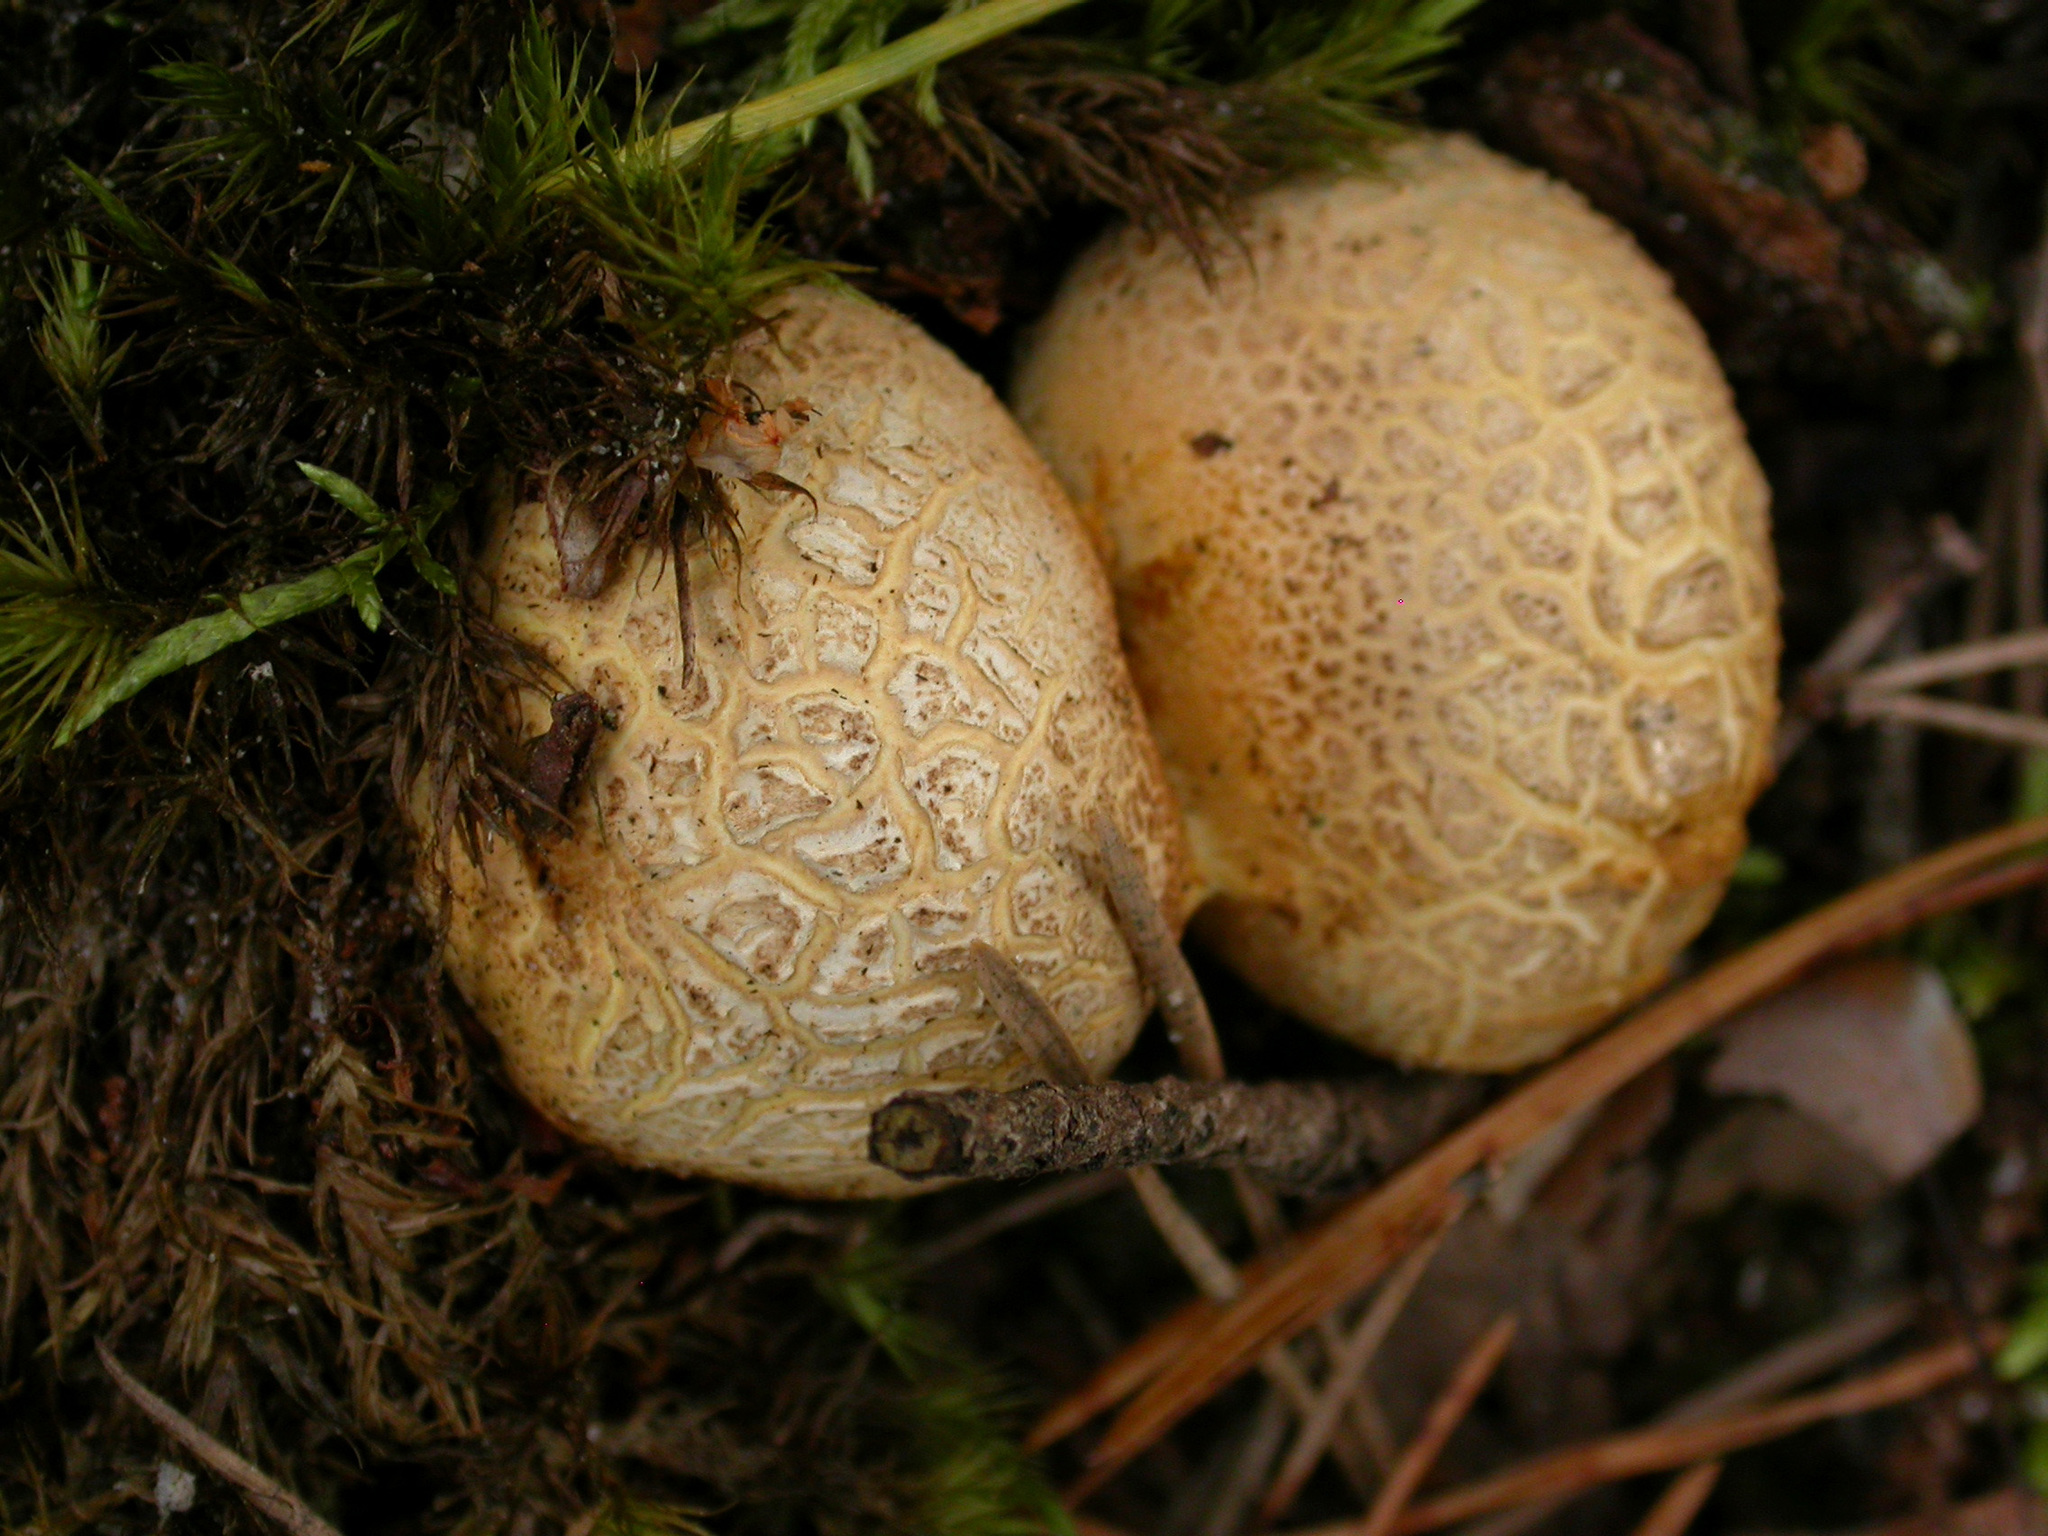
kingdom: Fungi
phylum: Basidiomycota
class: Agaricomycetes
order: Boletales
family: Sclerodermataceae
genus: Scleroderma
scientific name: Scleroderma citrinum
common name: Common earthball
